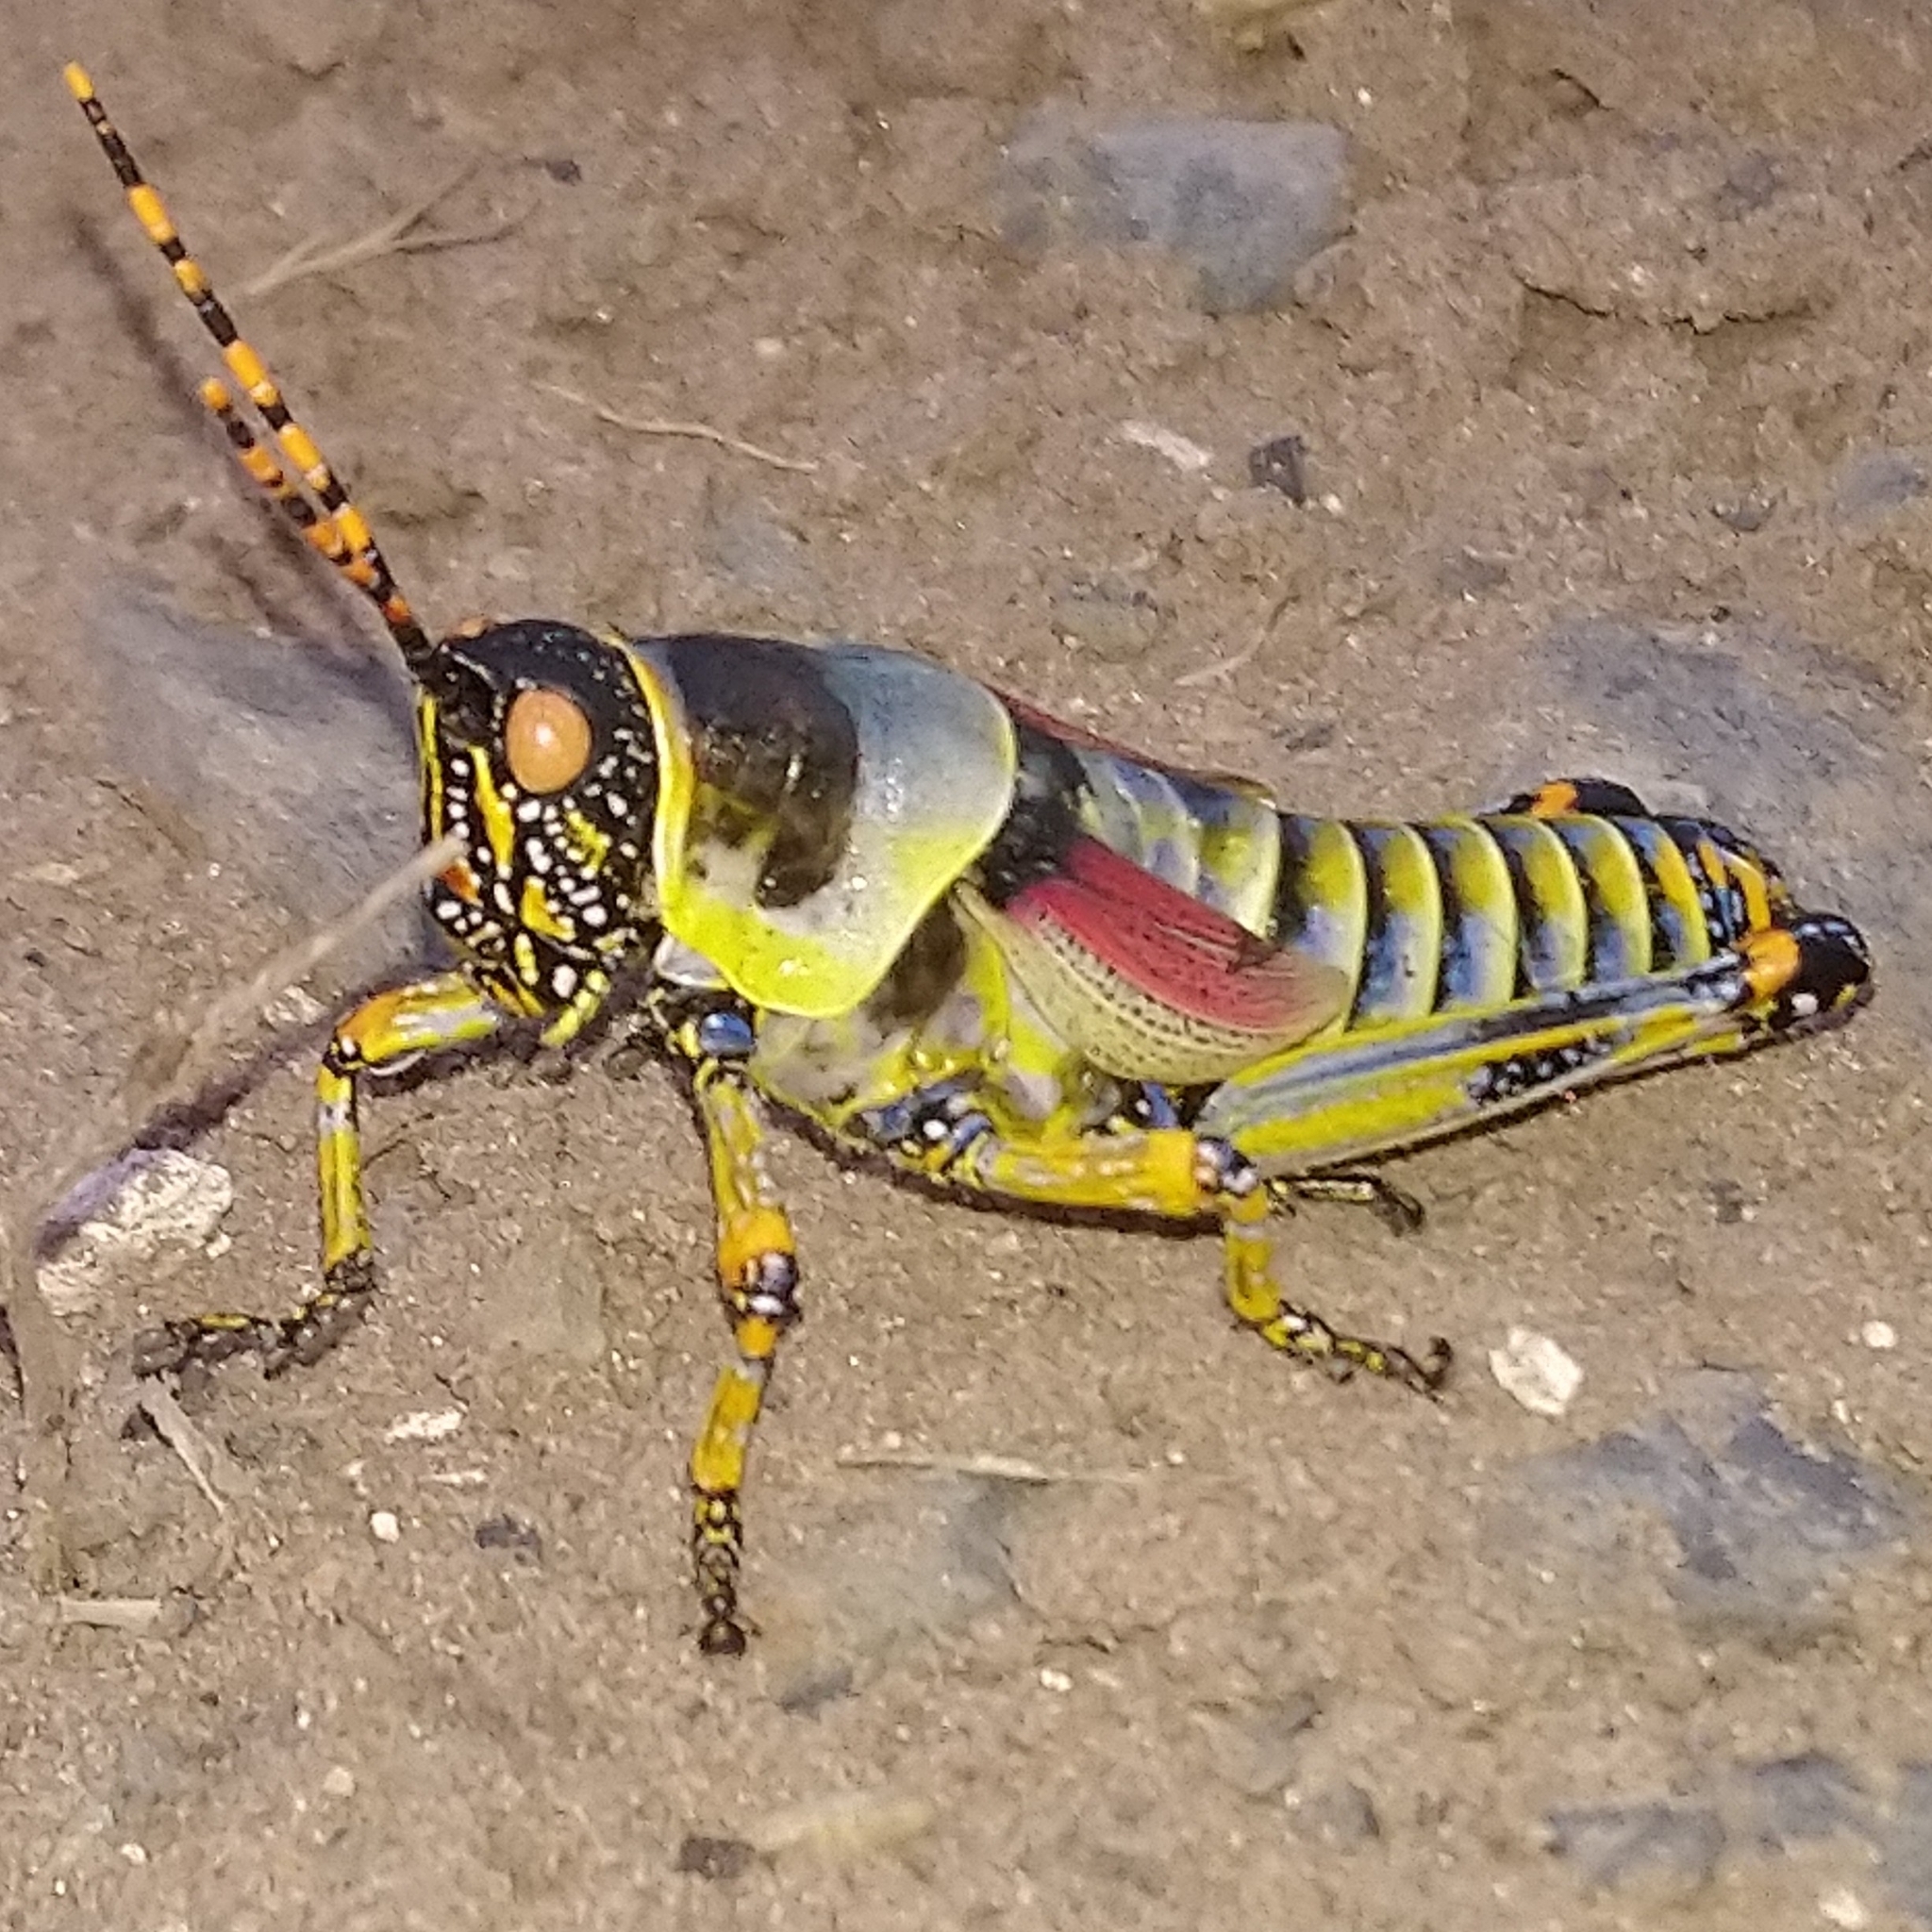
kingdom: Animalia
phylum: Arthropoda
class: Insecta
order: Orthoptera
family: Pyrgomorphidae
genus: Zonocerus
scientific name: Zonocerus elegans
